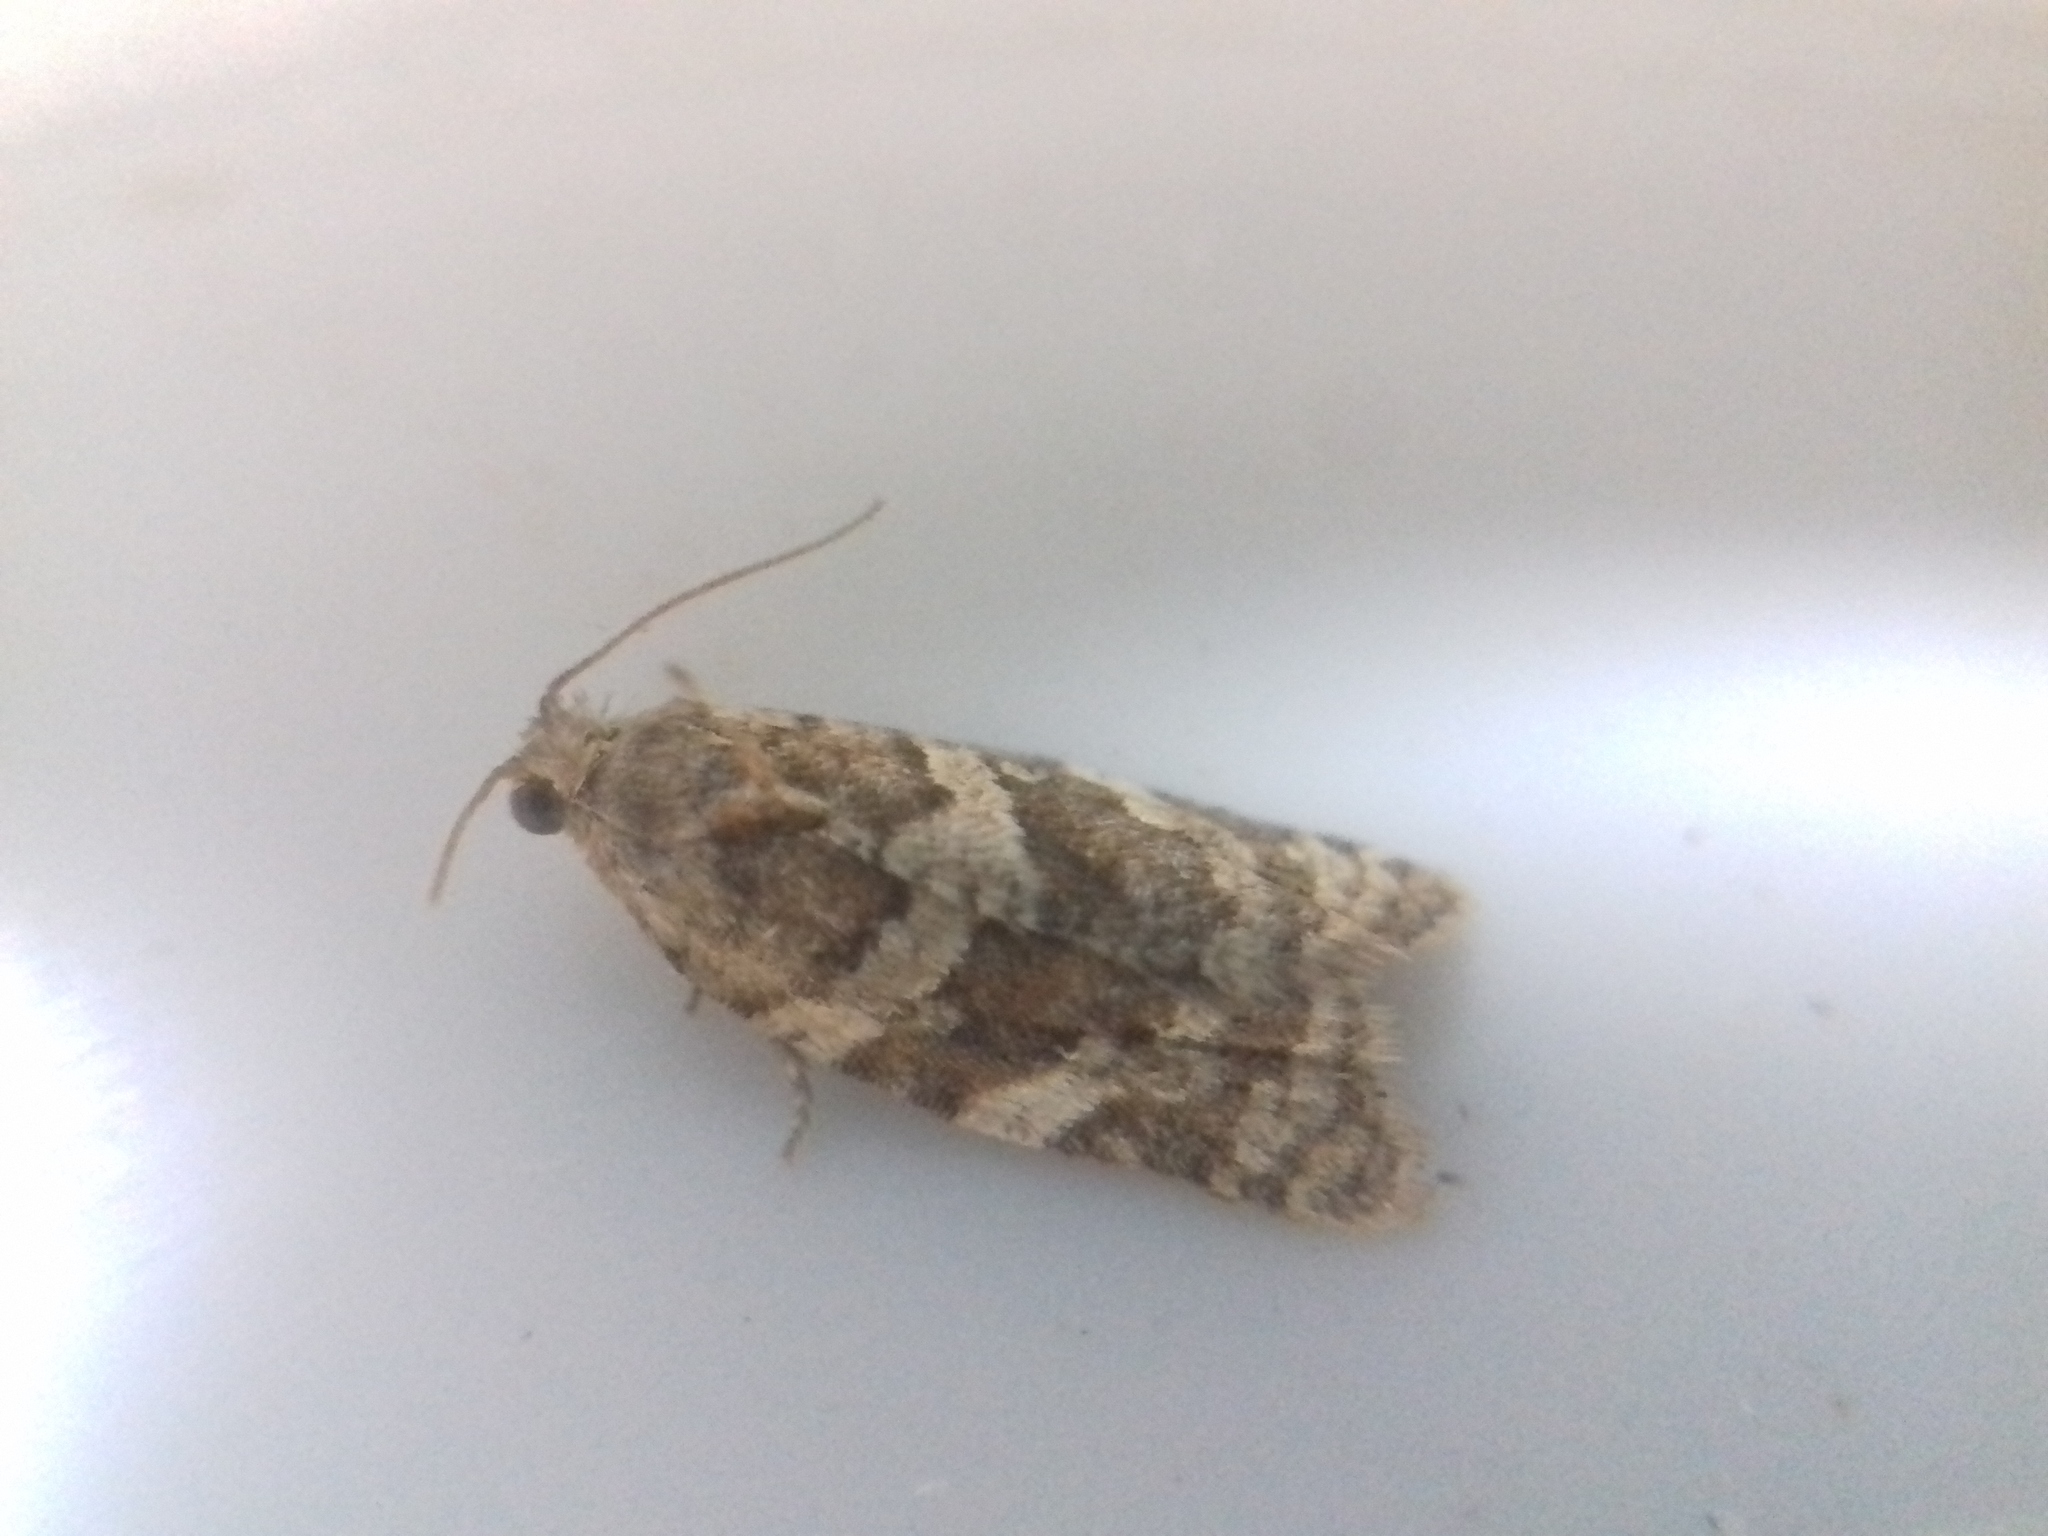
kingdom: Animalia
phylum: Arthropoda
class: Insecta
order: Lepidoptera
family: Tortricidae
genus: Argyrotaenia
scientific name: Argyrotaenia ljungiana
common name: Heather twist
